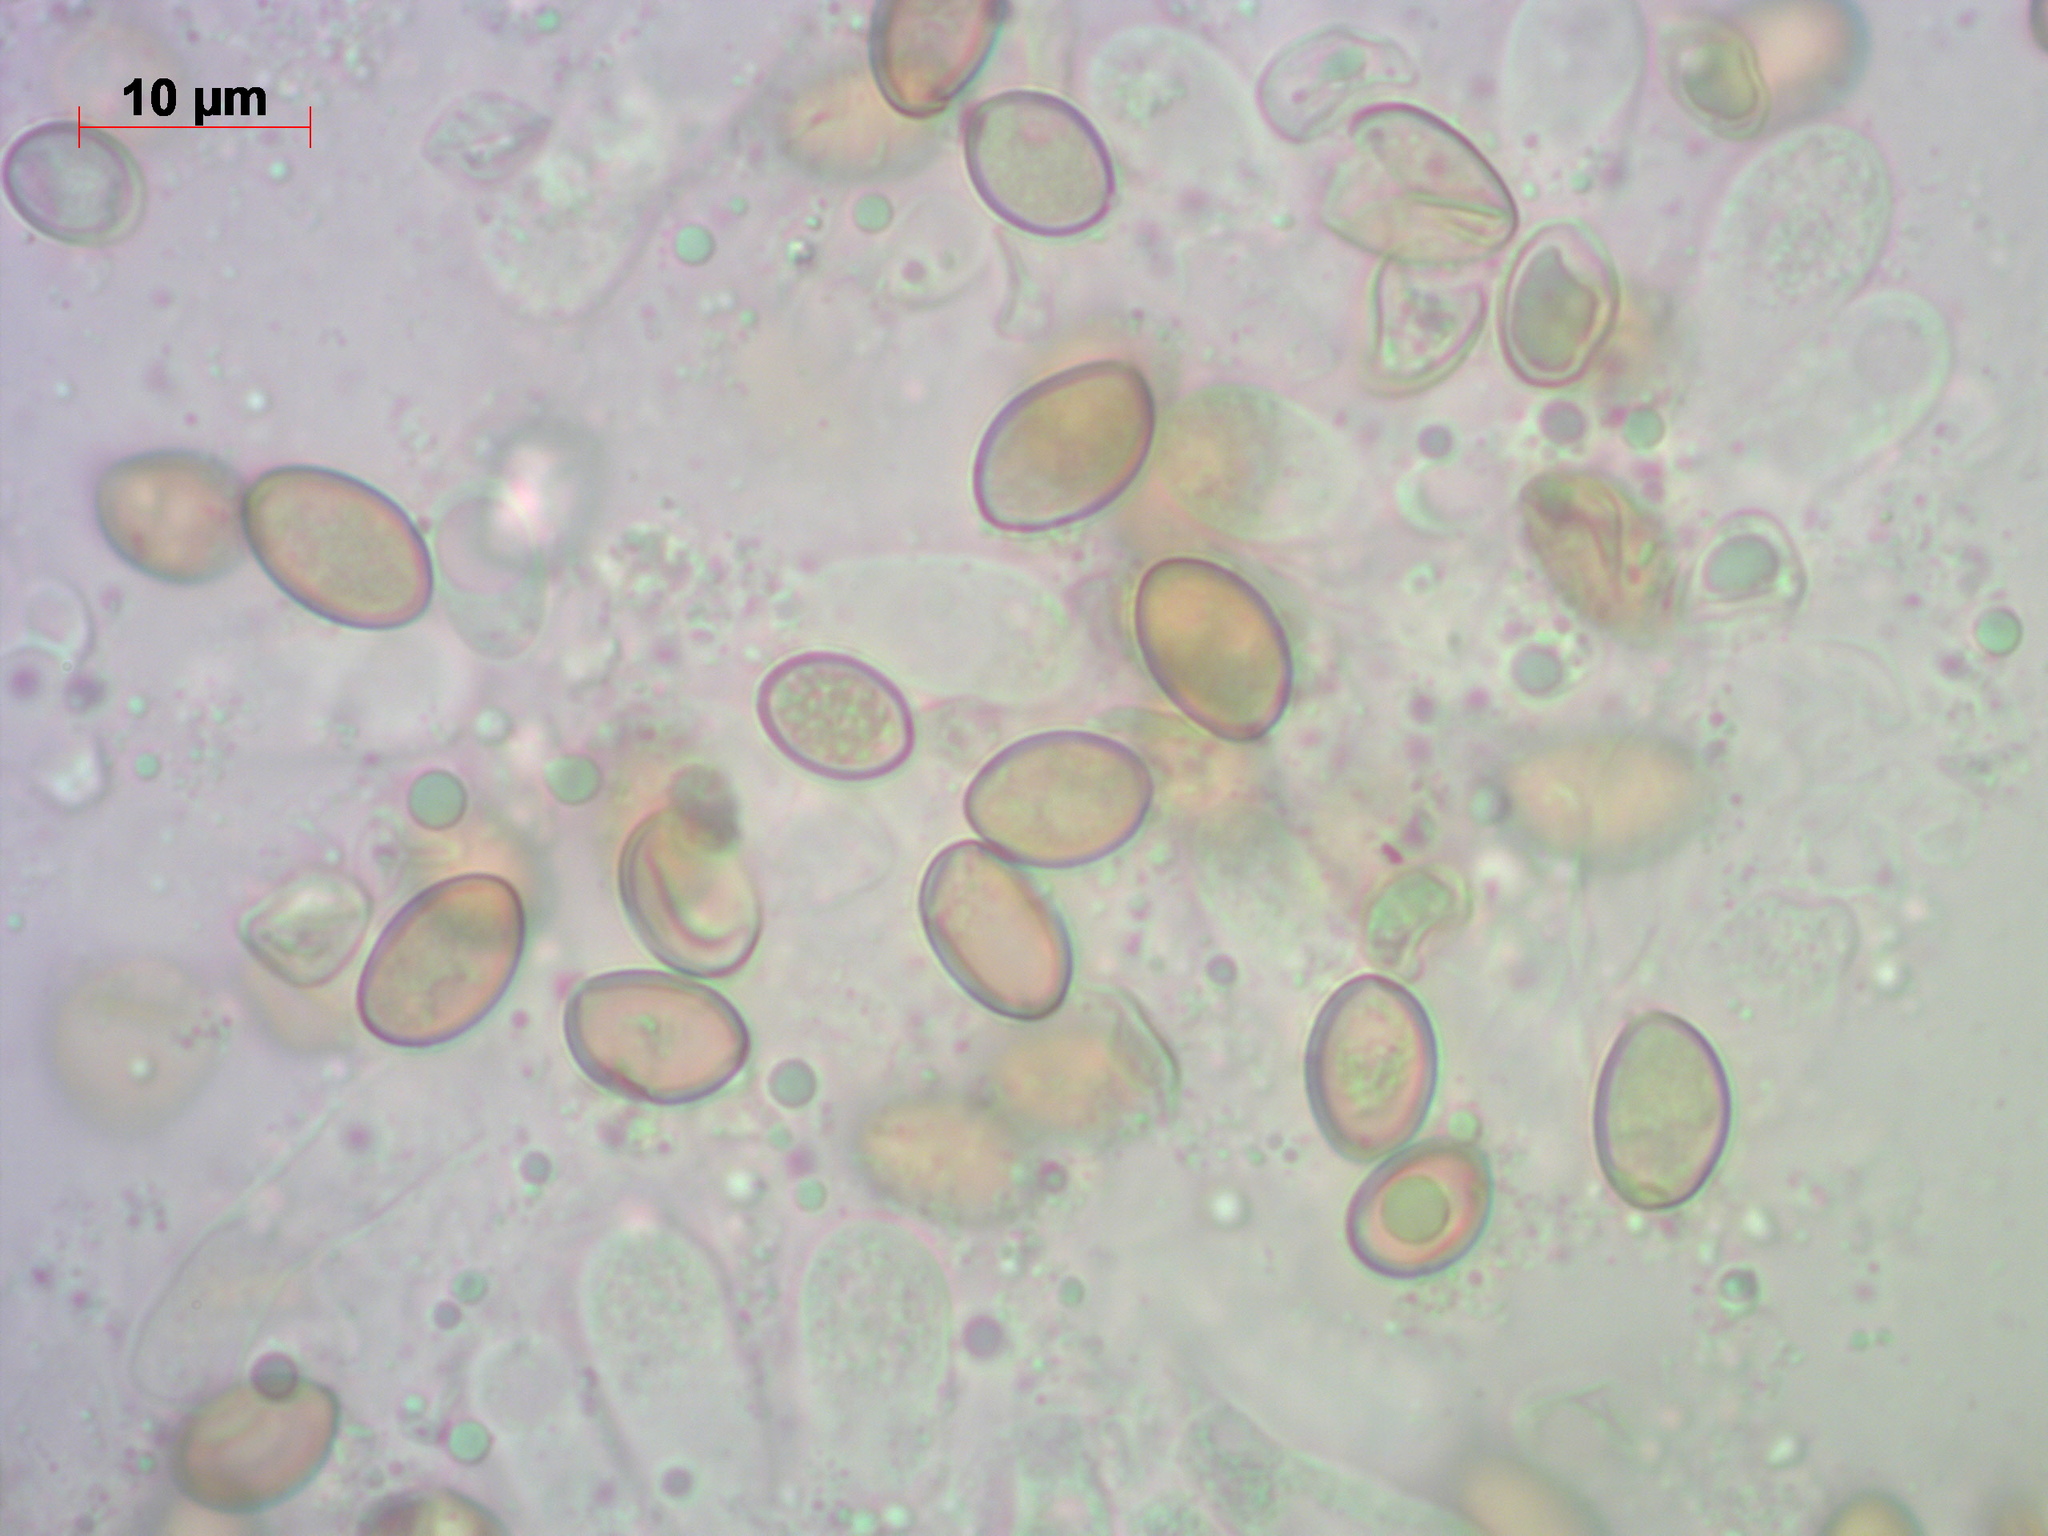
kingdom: Fungi
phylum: Basidiomycota
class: Agaricomycetes
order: Agaricales
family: Crepidotaceae
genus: Crepidotus
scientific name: Crepidotus mollis
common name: Peeling oysterling
